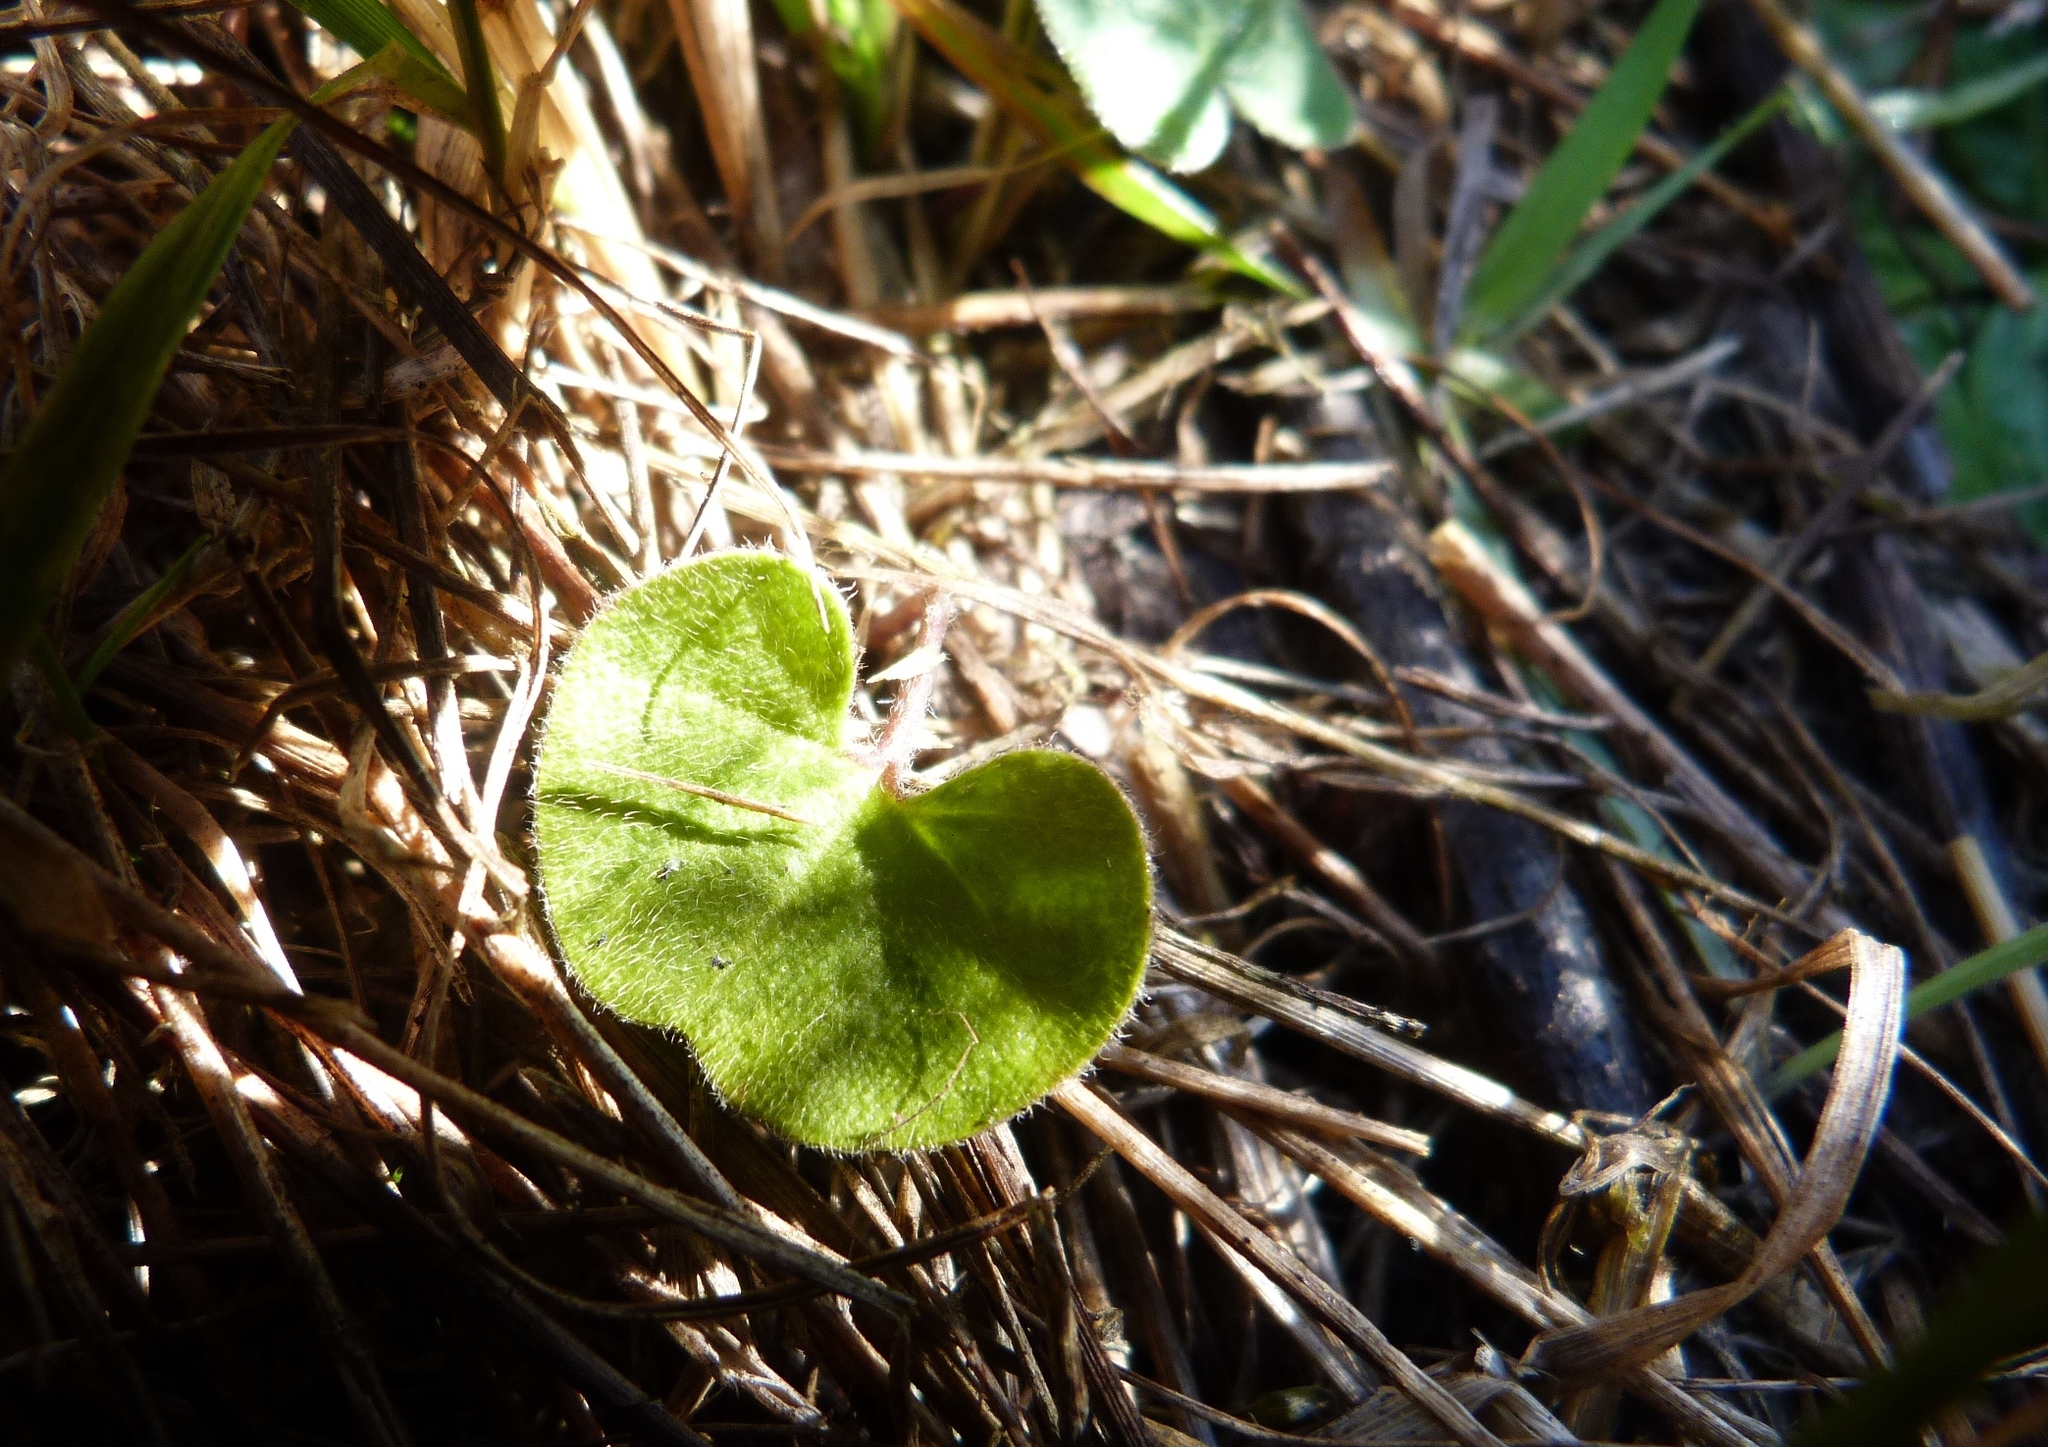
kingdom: Plantae
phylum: Tracheophyta
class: Magnoliopsida
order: Solanales
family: Convolvulaceae
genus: Dichondra
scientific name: Dichondra repens
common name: Kidneyweed
